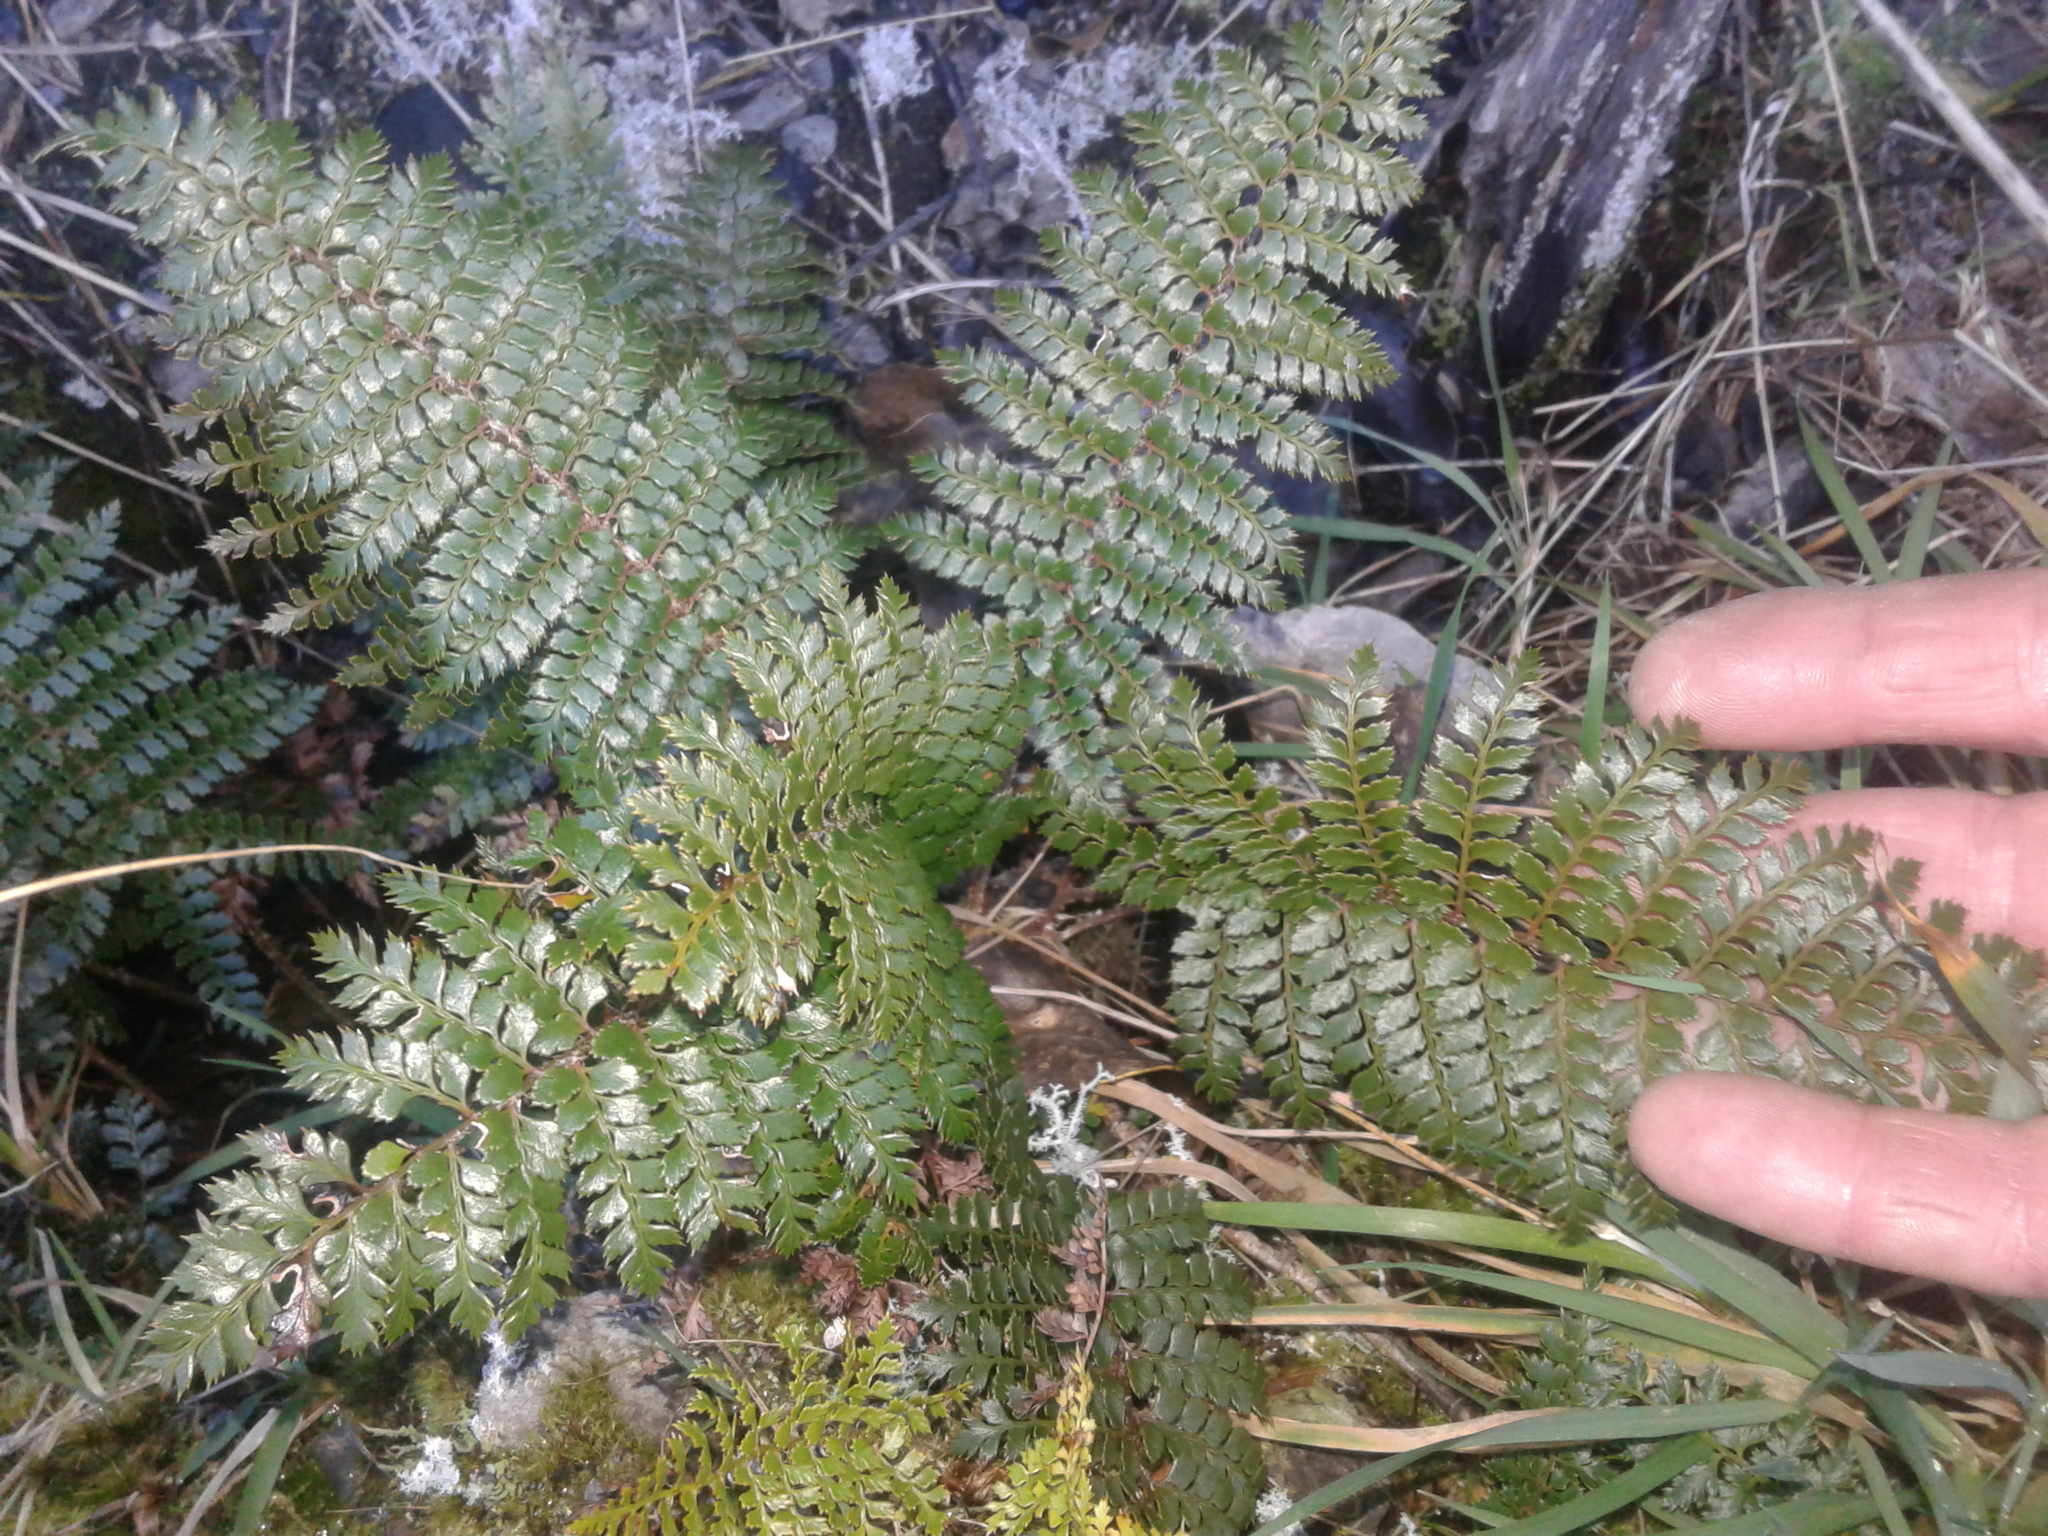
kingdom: Plantae
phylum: Tracheophyta
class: Polypodiopsida
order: Polypodiales
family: Dryopteridaceae
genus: Polystichum
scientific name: Polystichum vestitum
